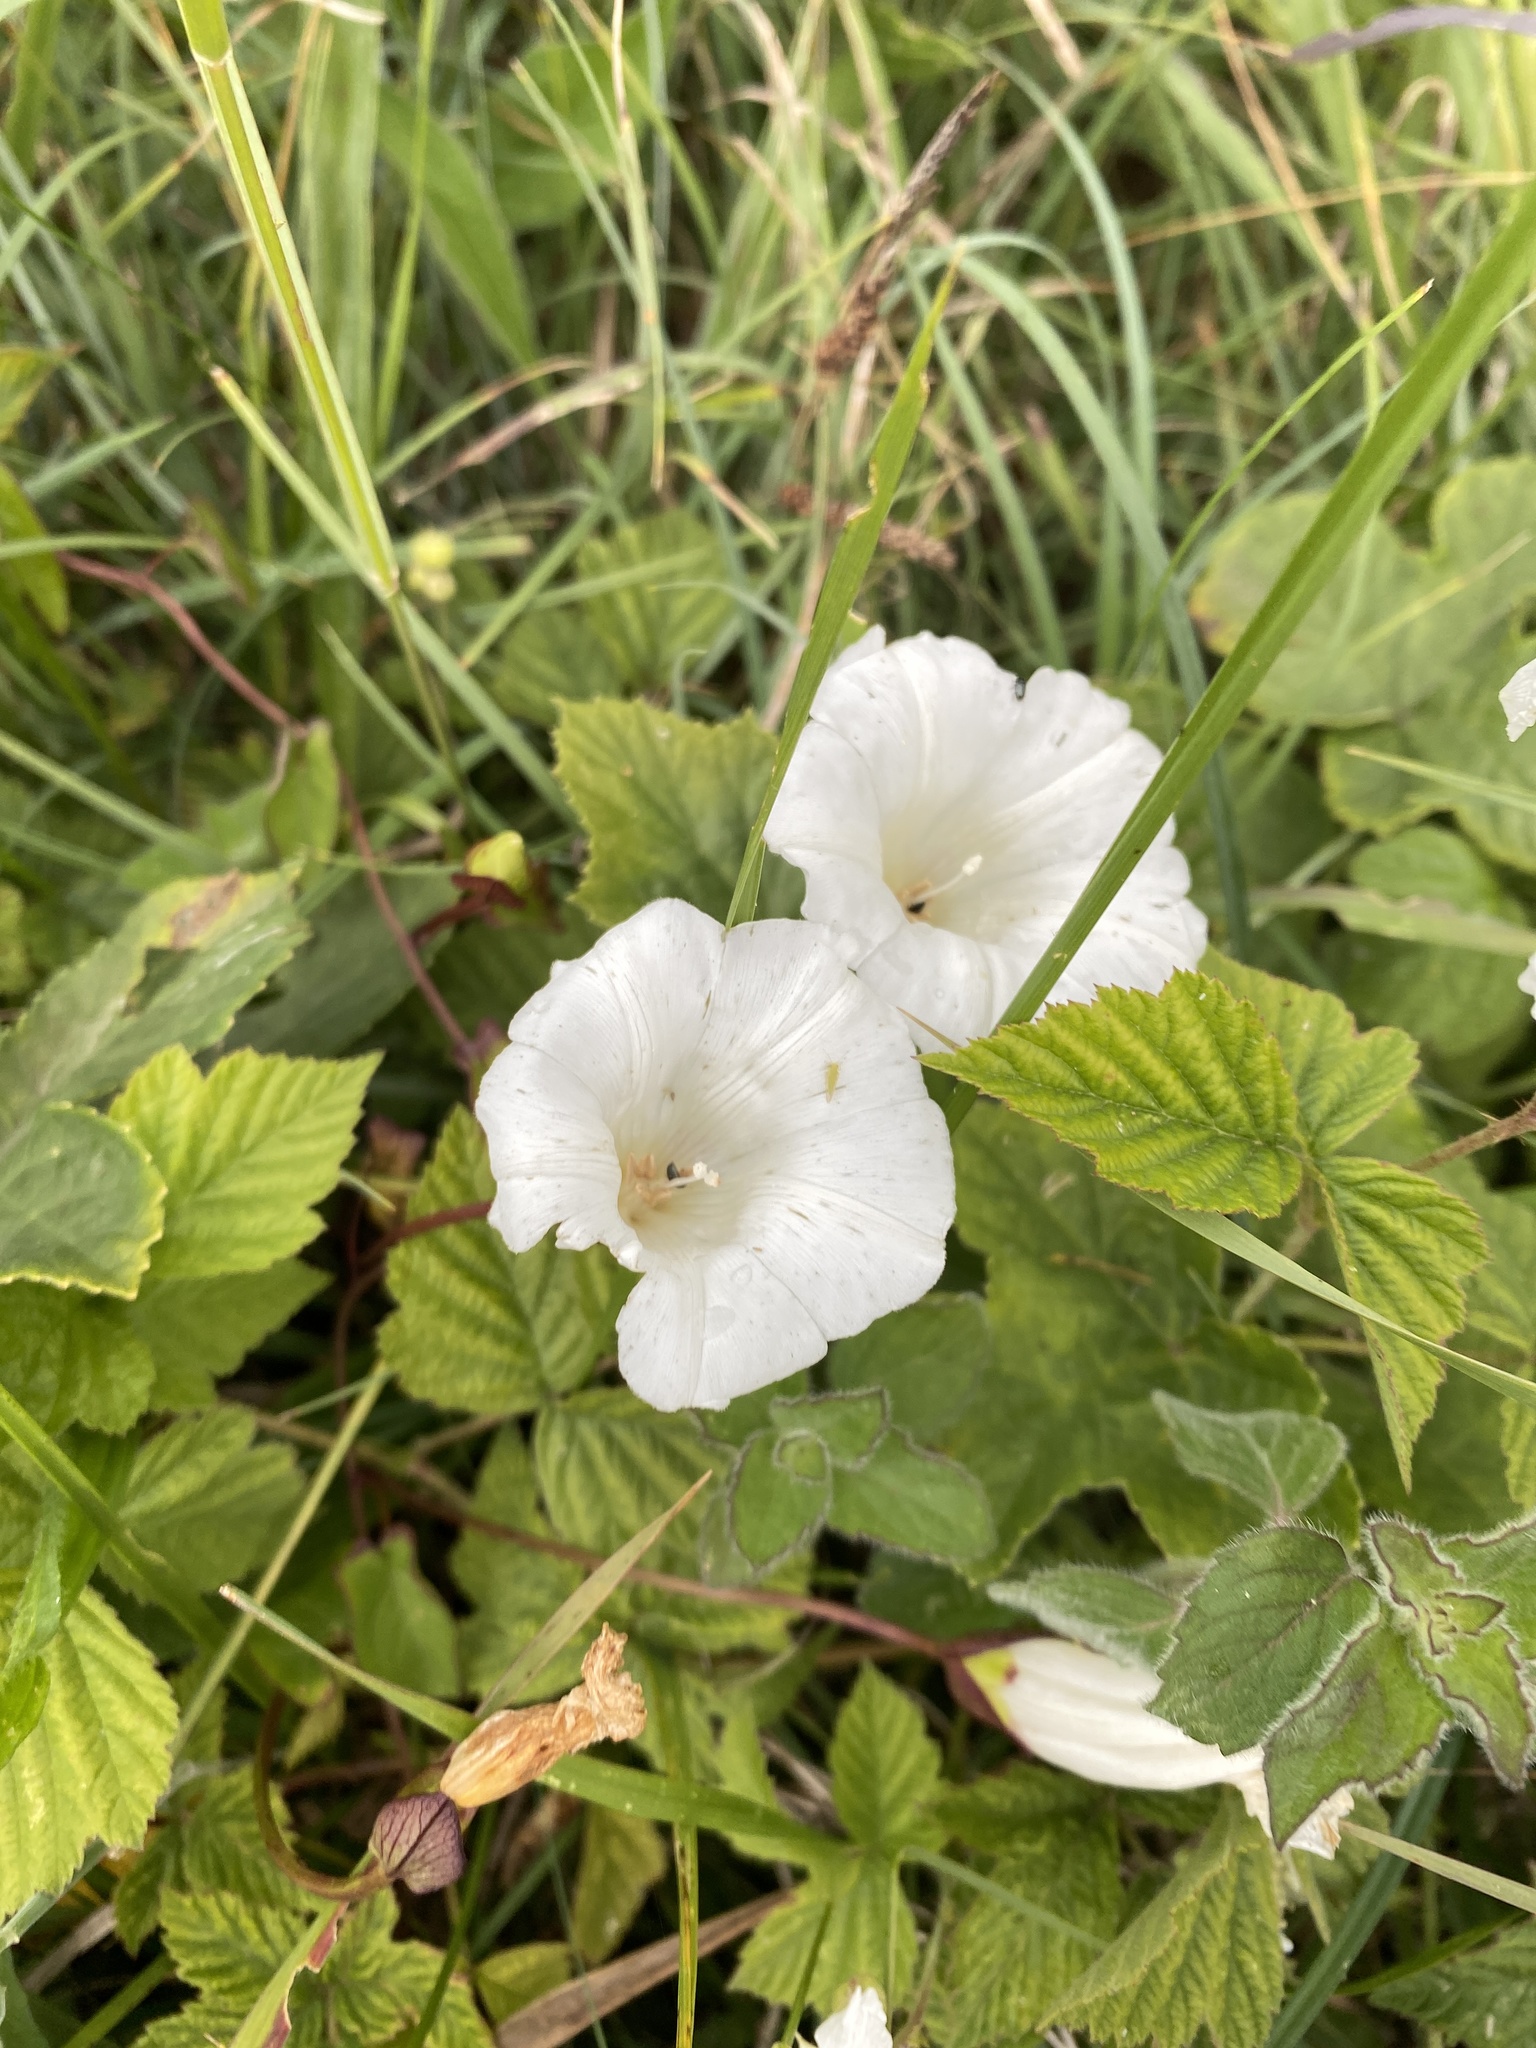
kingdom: Plantae
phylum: Tracheophyta
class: Magnoliopsida
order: Solanales
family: Convolvulaceae
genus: Calystegia
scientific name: Calystegia sepium
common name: Hedge bindweed
